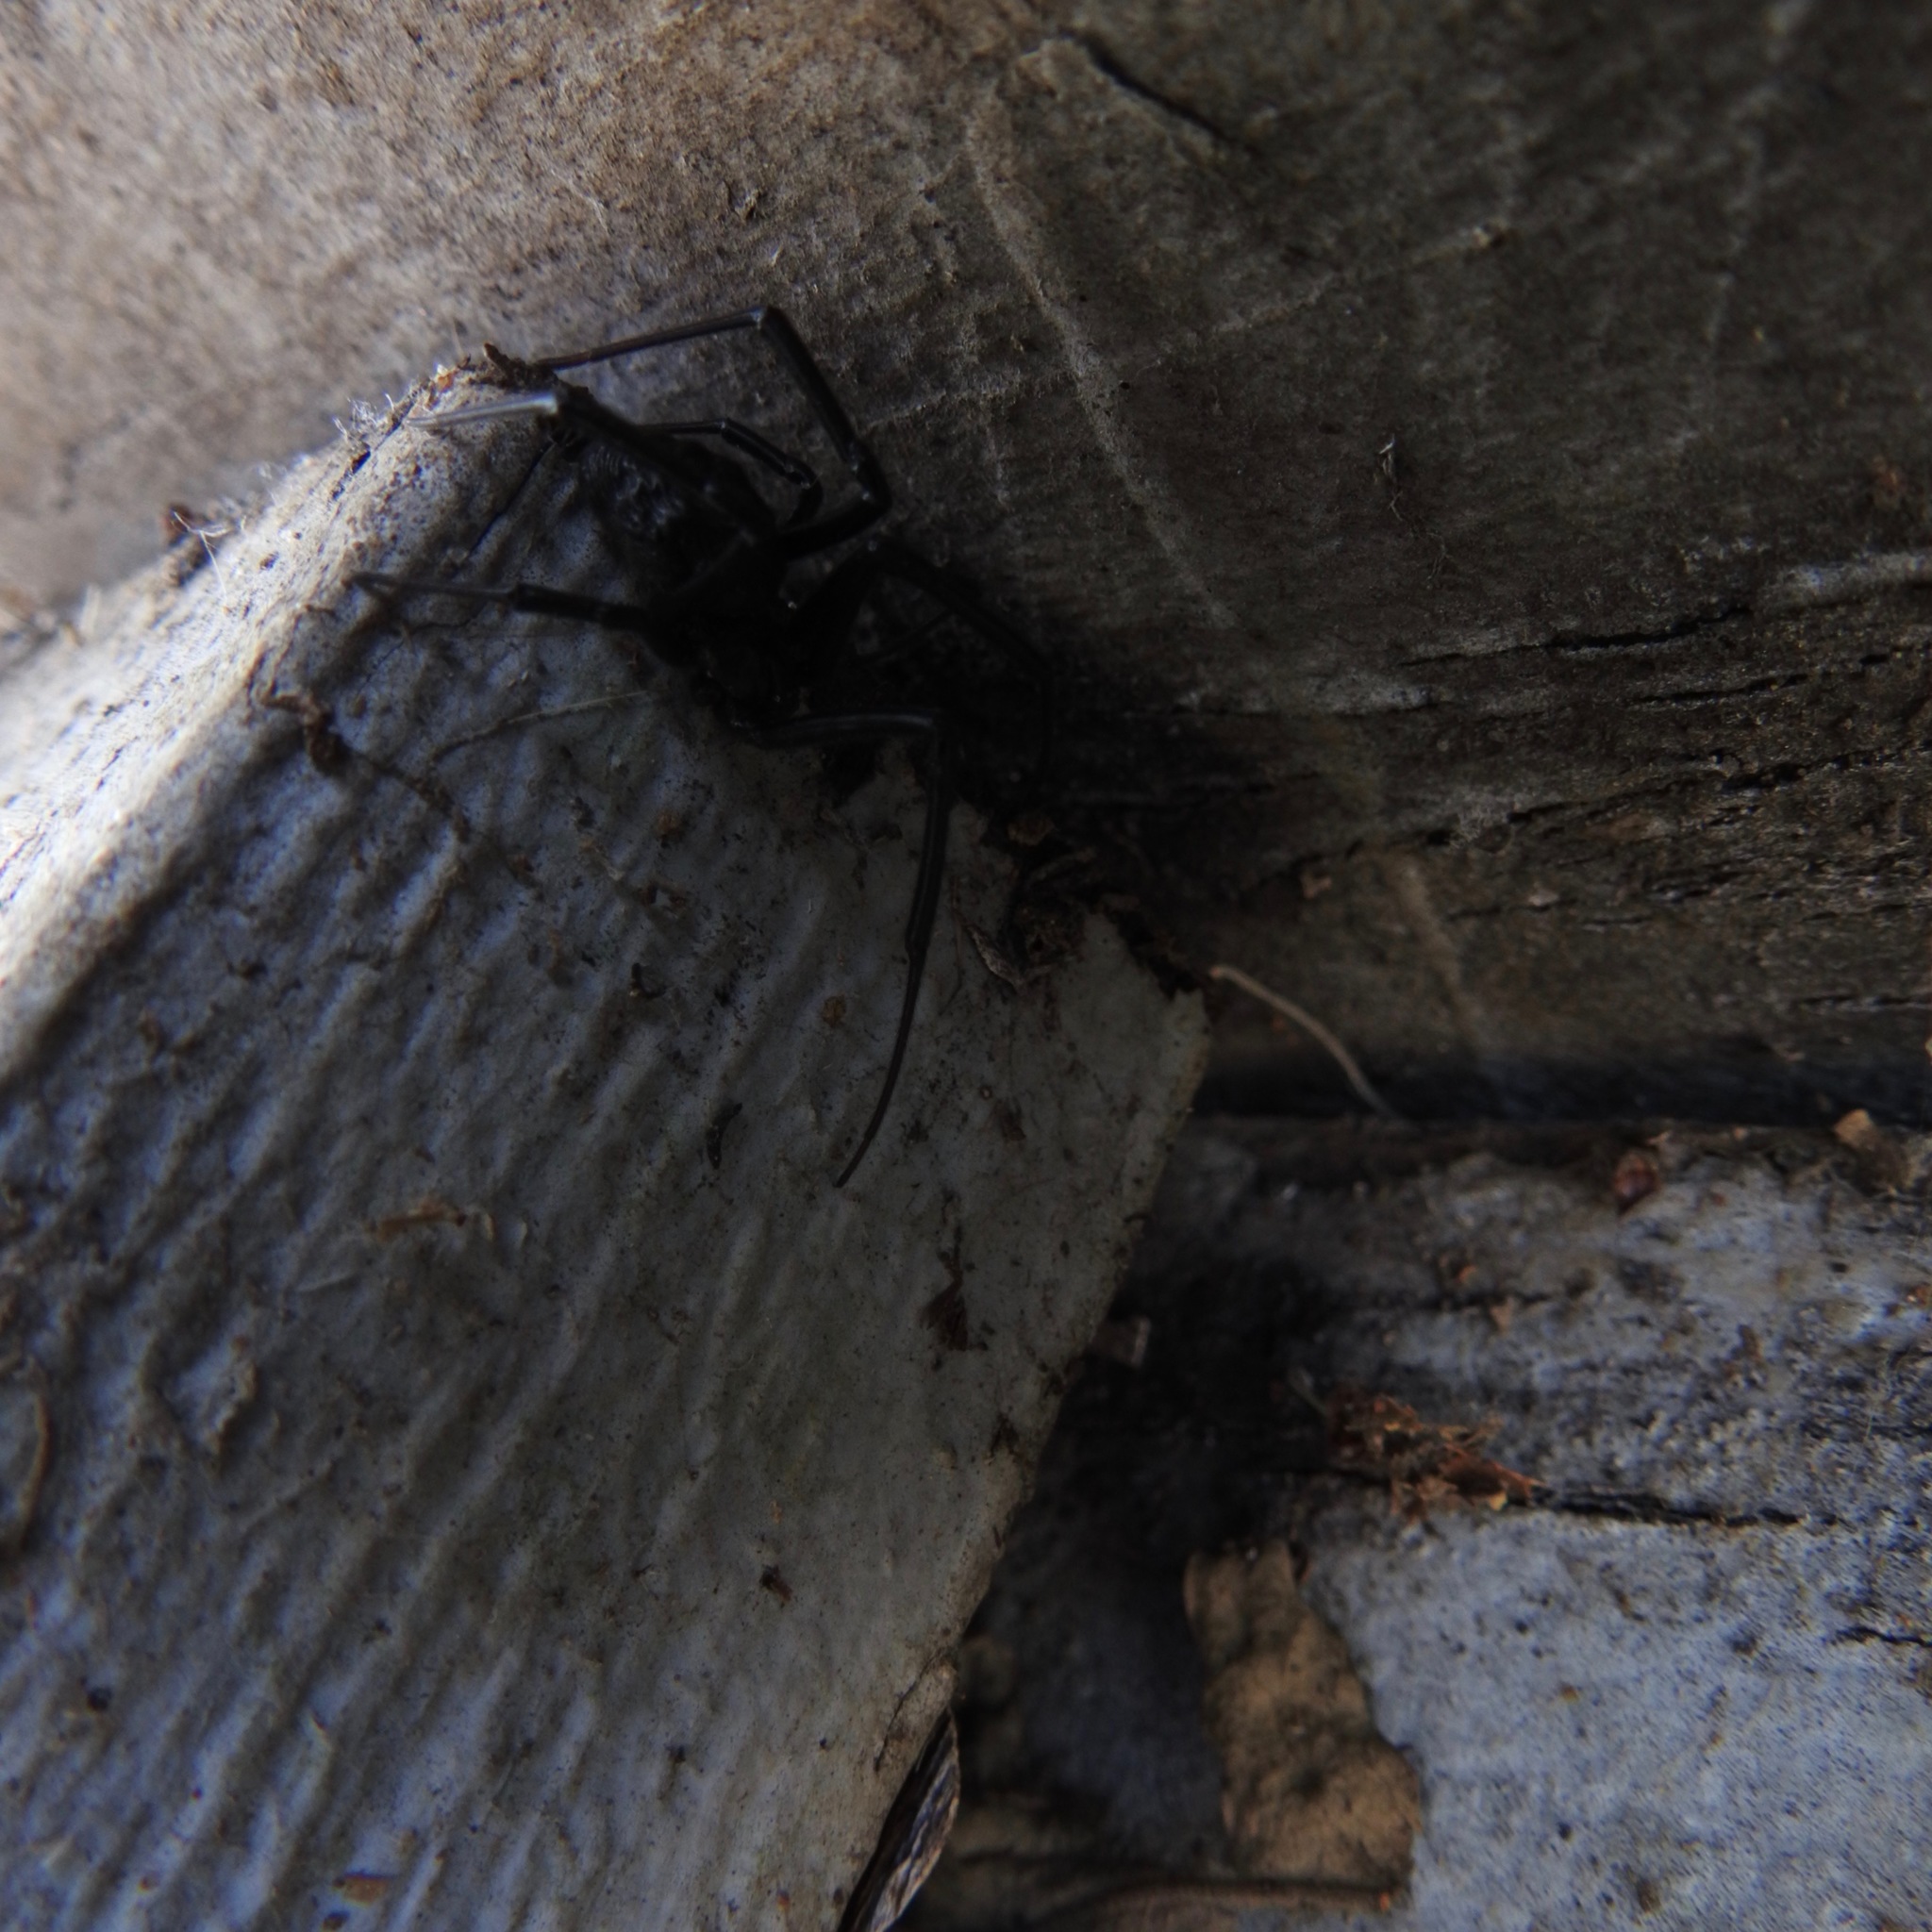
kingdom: Animalia
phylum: Arthropoda
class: Arachnida
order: Araneae
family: Theridiidae
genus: Latrodectus
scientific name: Latrodectus hesperus
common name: Western black widow
